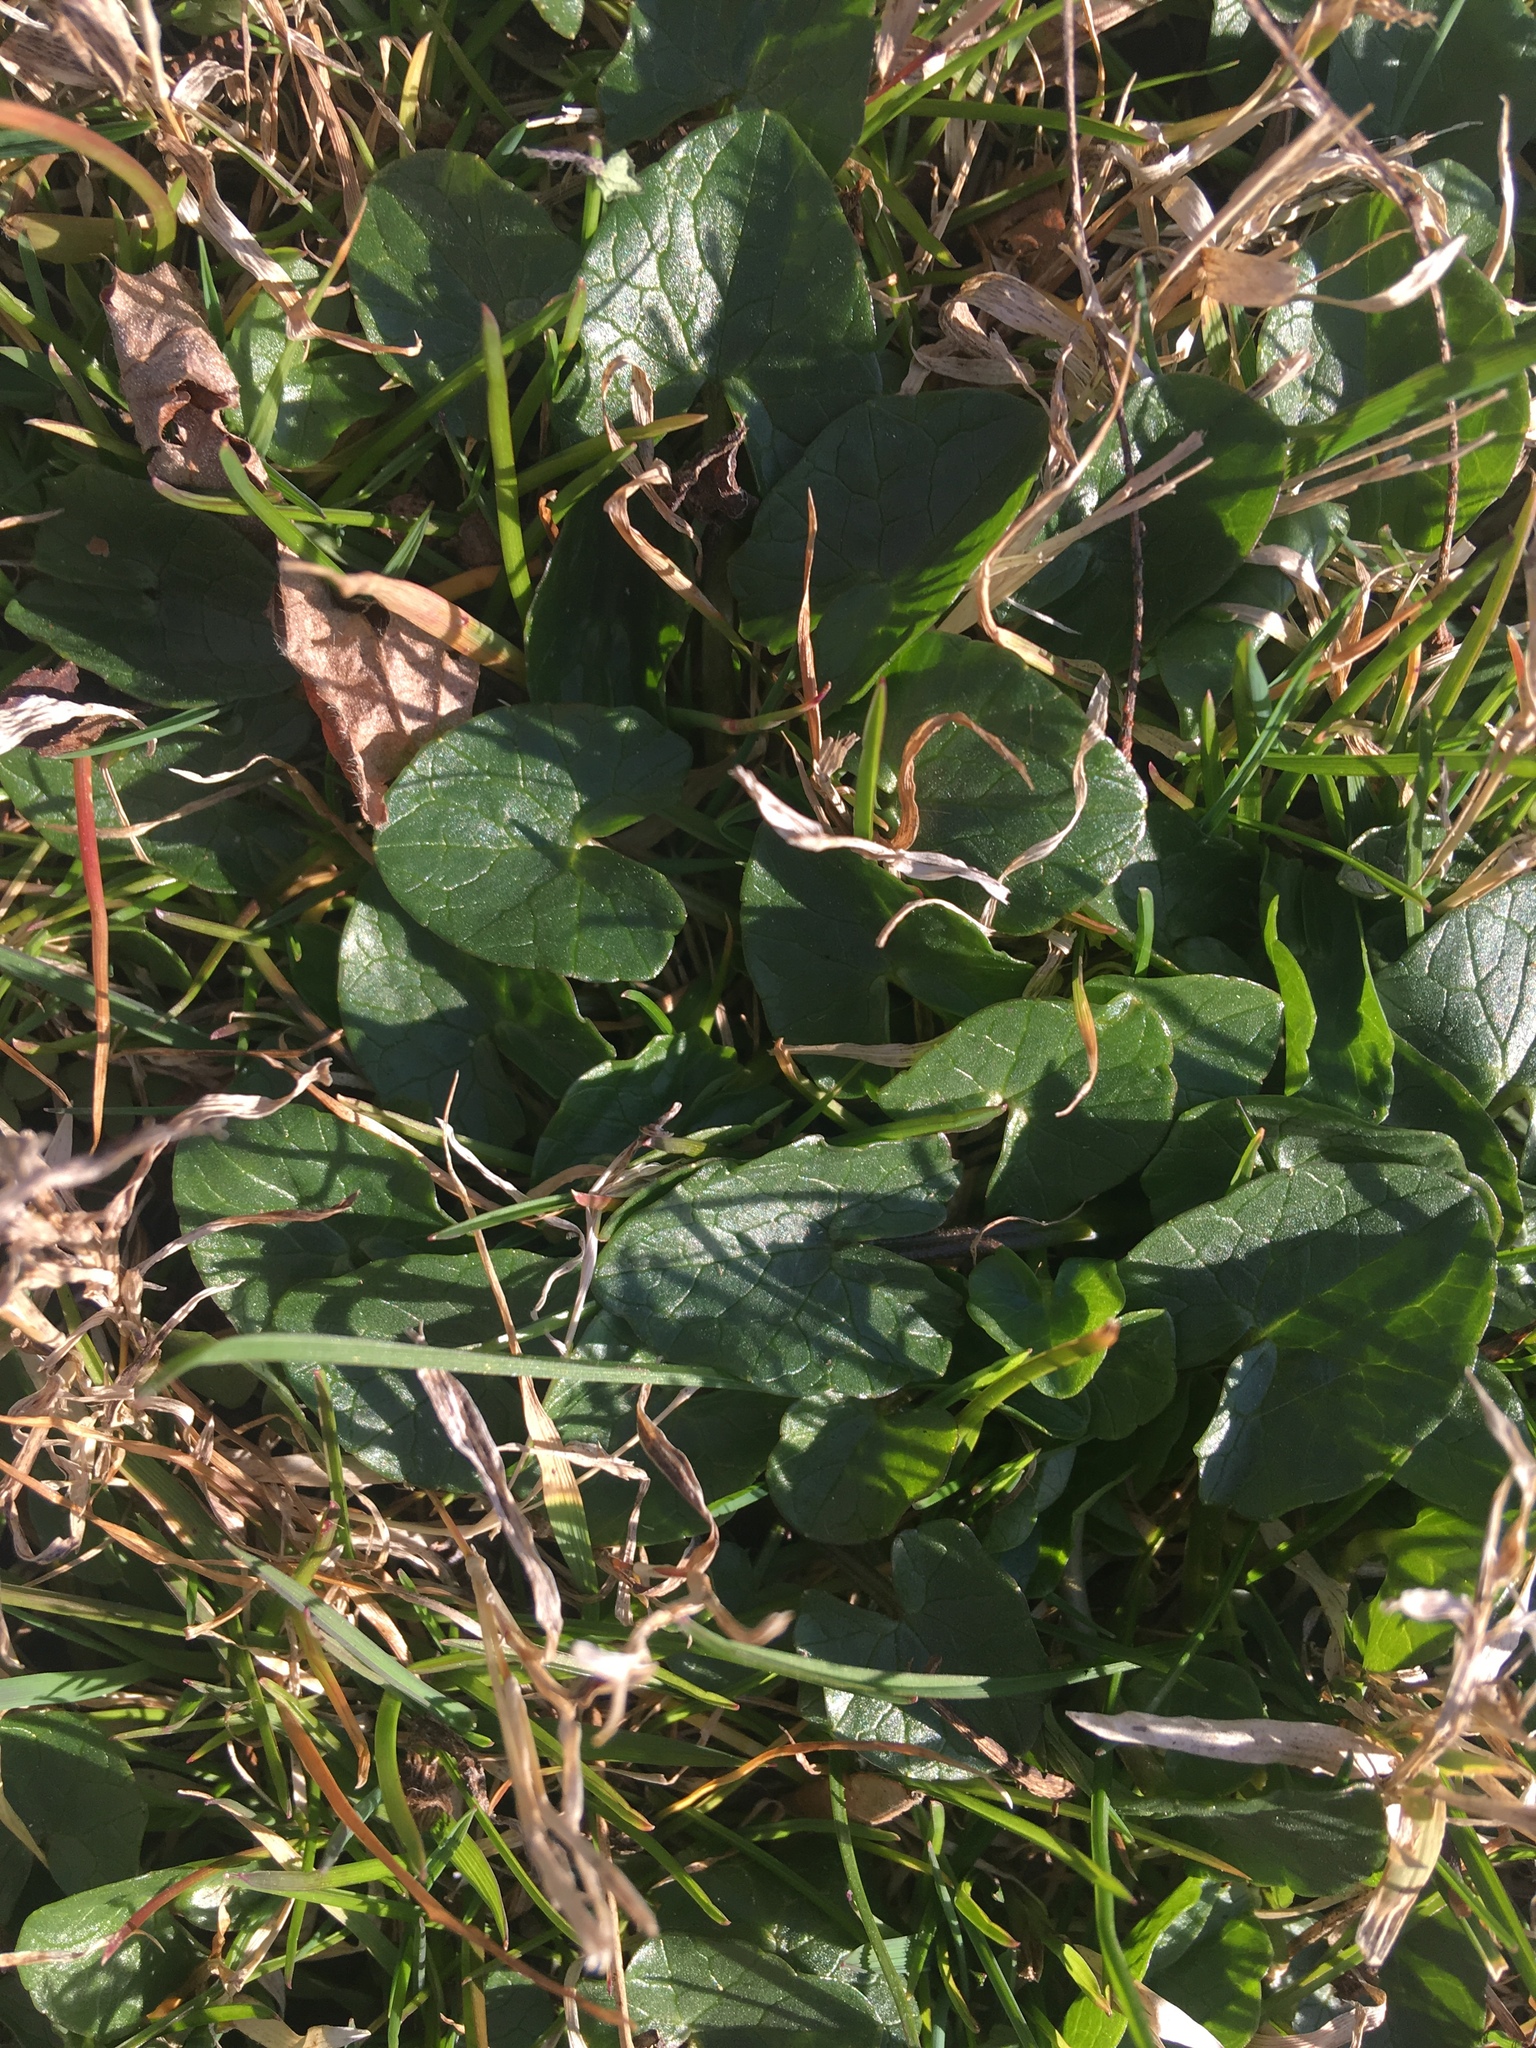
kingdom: Plantae
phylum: Tracheophyta
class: Magnoliopsida
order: Ranunculales
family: Ranunculaceae
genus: Ficaria
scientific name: Ficaria verna
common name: Lesser celandine
